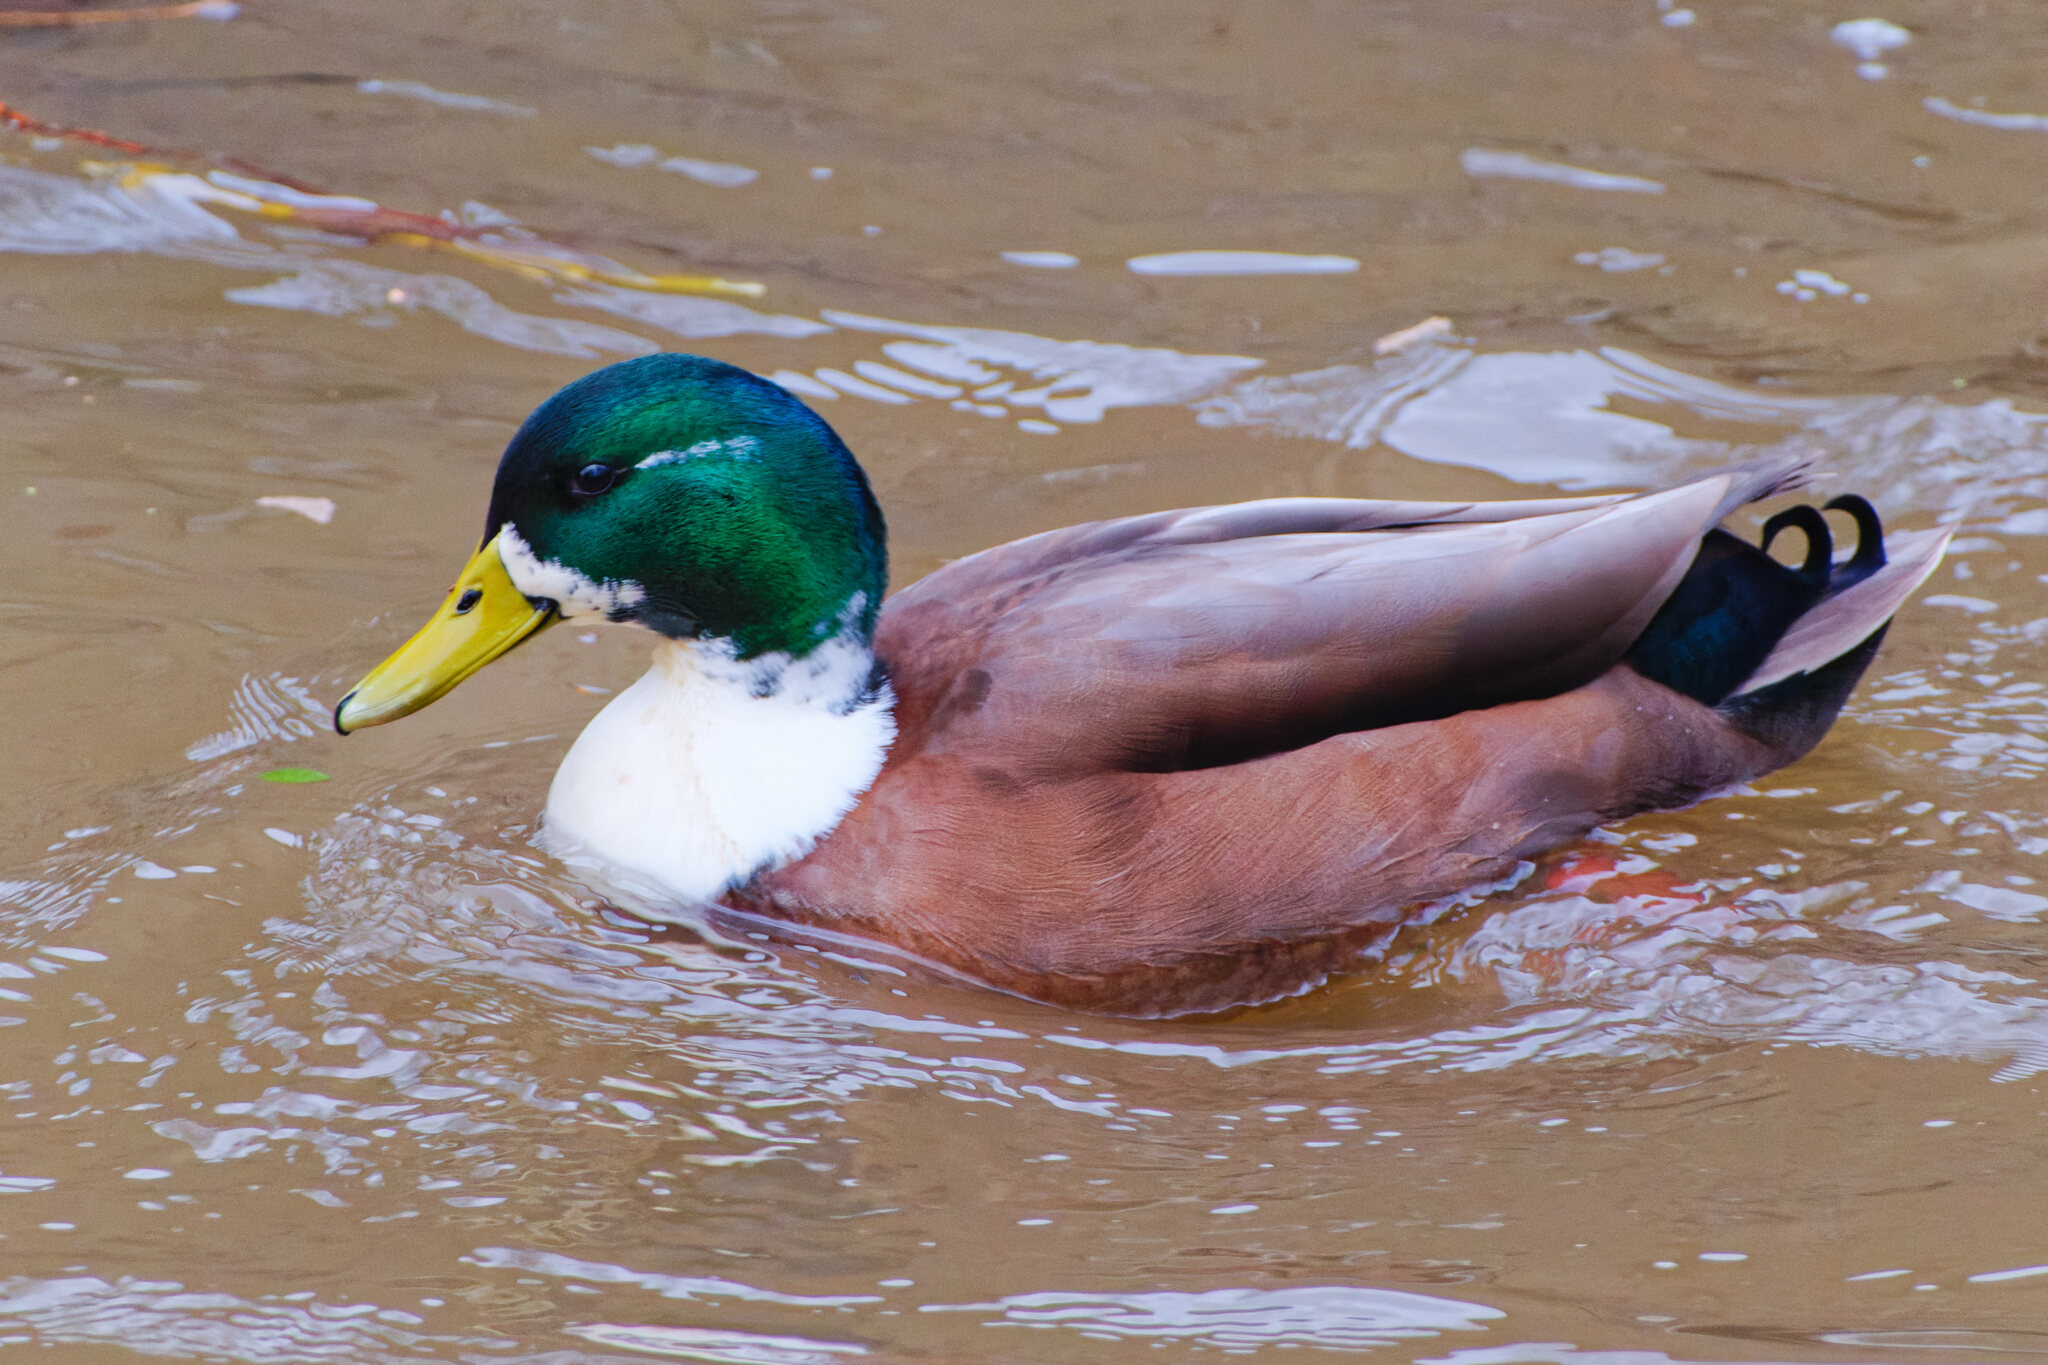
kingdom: Animalia
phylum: Chordata
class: Aves
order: Anseriformes
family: Anatidae
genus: Anas
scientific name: Anas platyrhynchos
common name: Mallard
